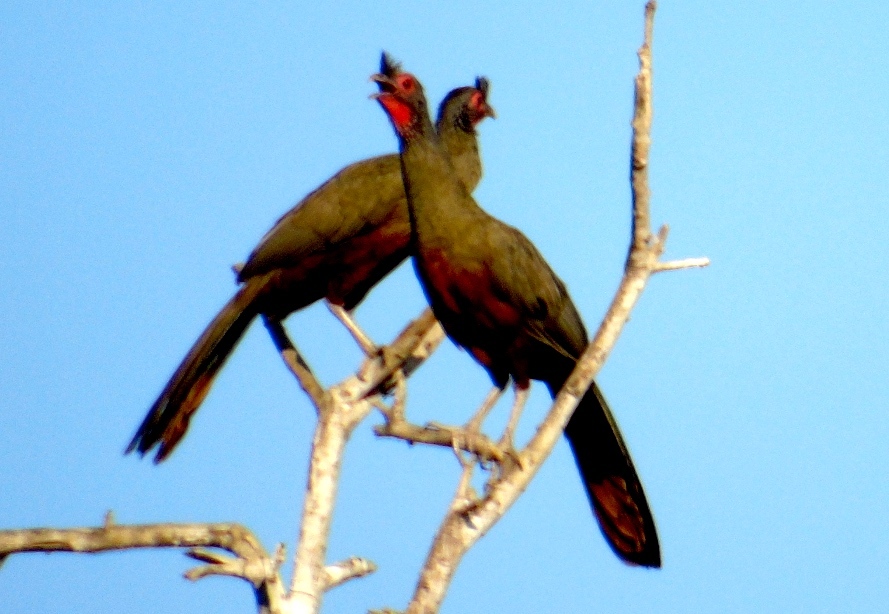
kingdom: Animalia
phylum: Chordata
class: Aves
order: Galliformes
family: Cracidae
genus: Ortalis
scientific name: Ortalis wagleri
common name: Rufous-bellied chachalaca
